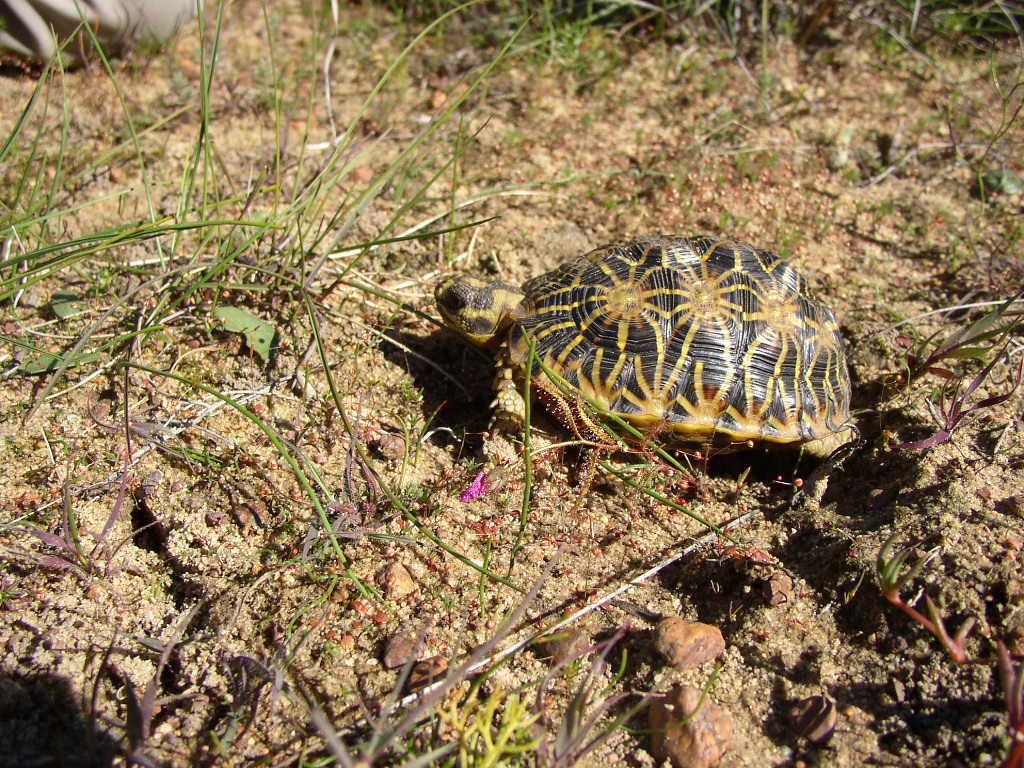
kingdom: Animalia
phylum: Chordata
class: Testudines
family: Testudinidae
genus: Psammobates
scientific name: Psammobates geometricus
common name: Geometric tortoise
